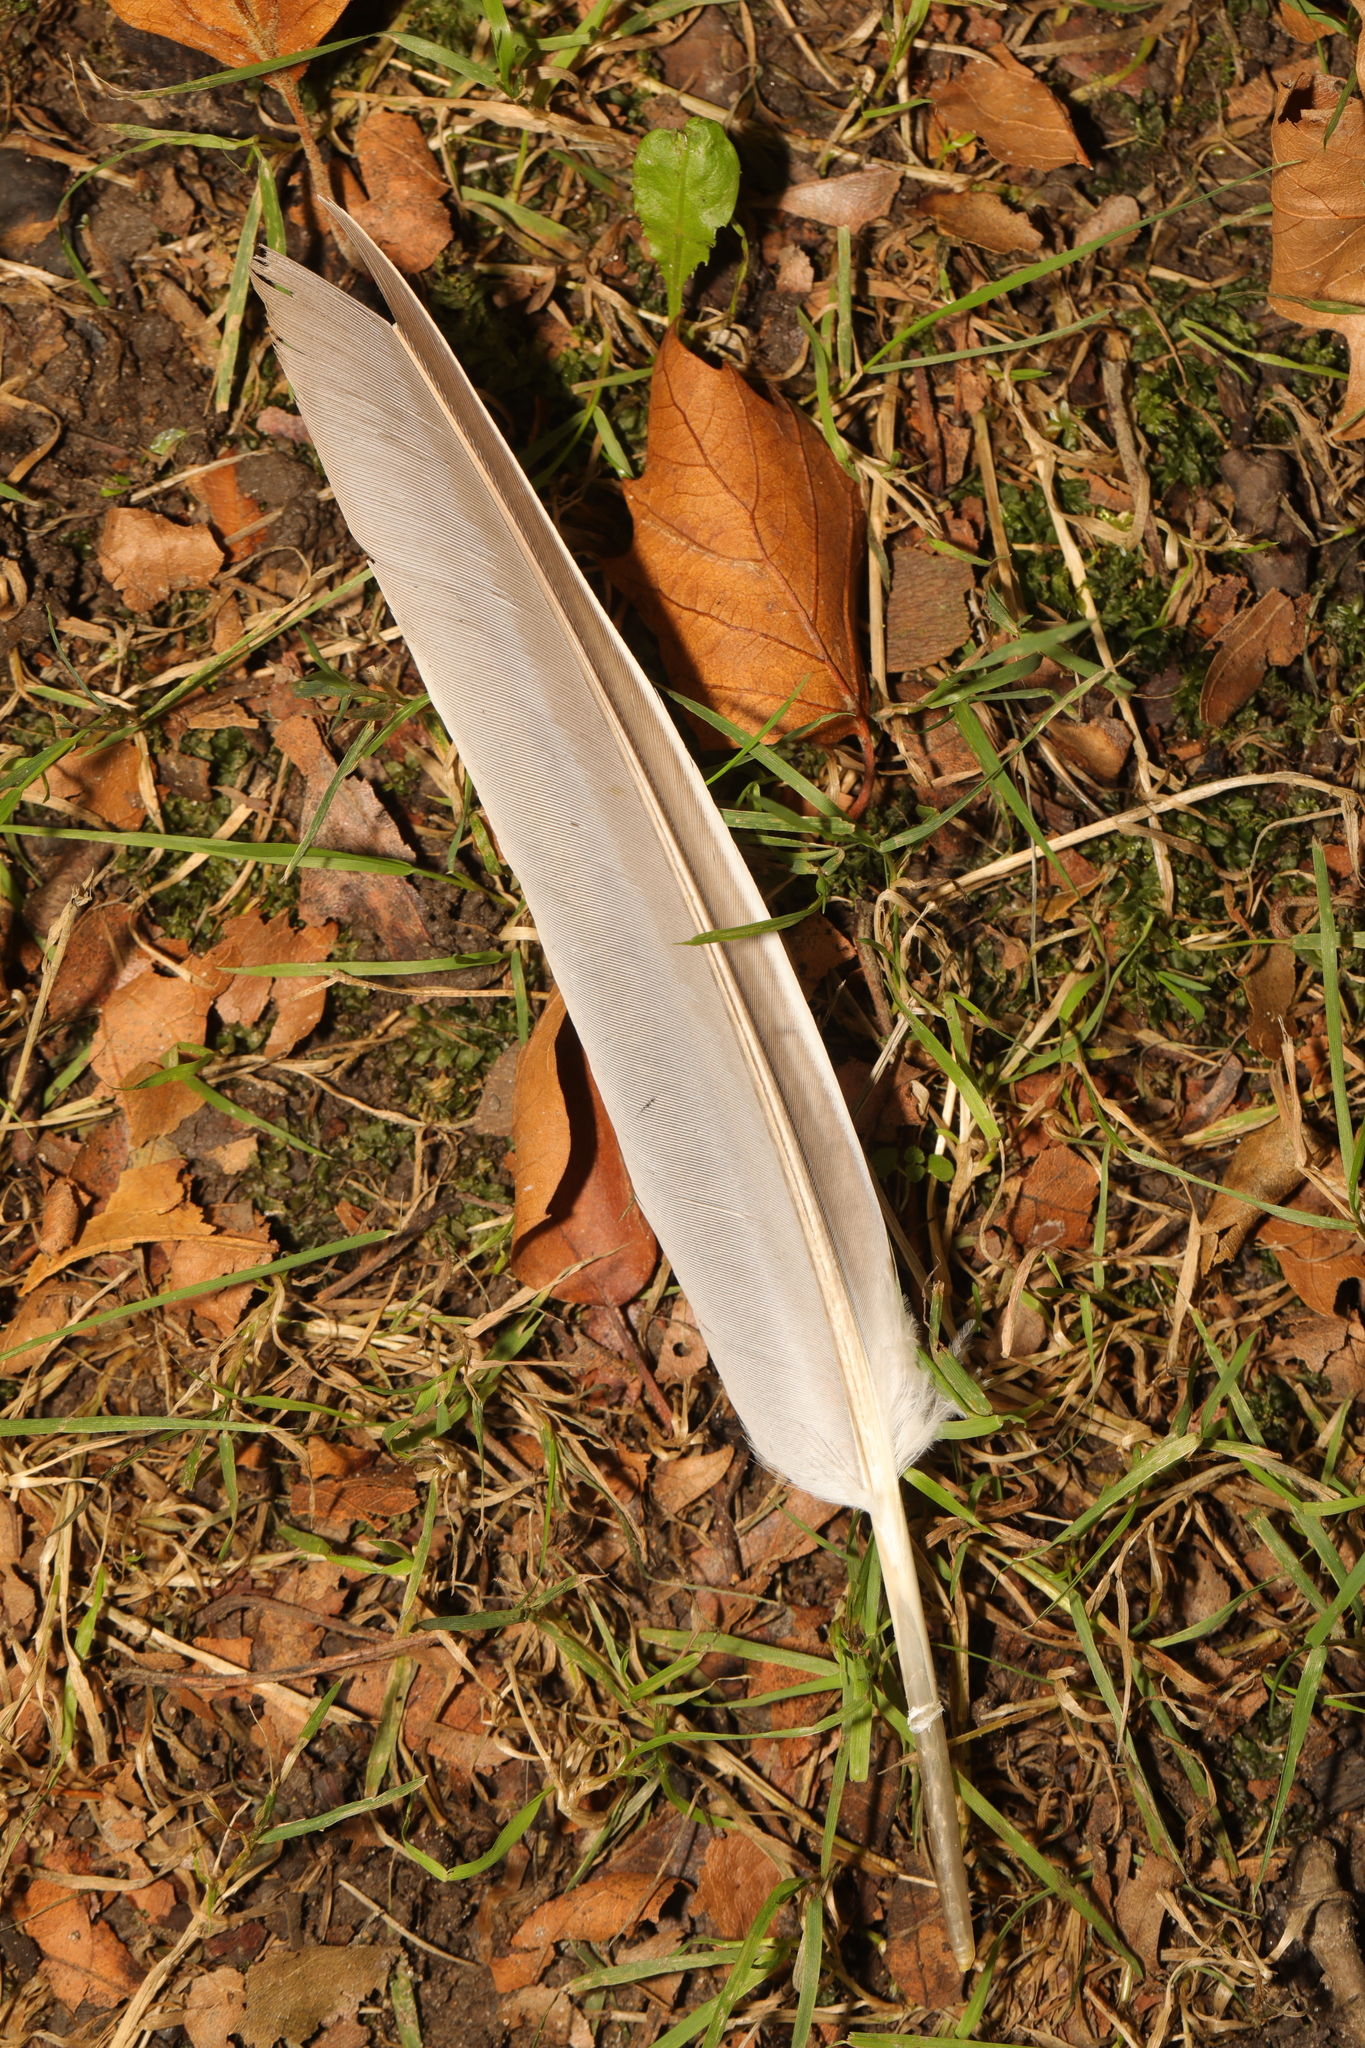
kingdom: Animalia
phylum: Chordata
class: Aves
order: Columbiformes
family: Columbidae
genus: Columba
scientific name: Columba palumbus
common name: Common wood pigeon
